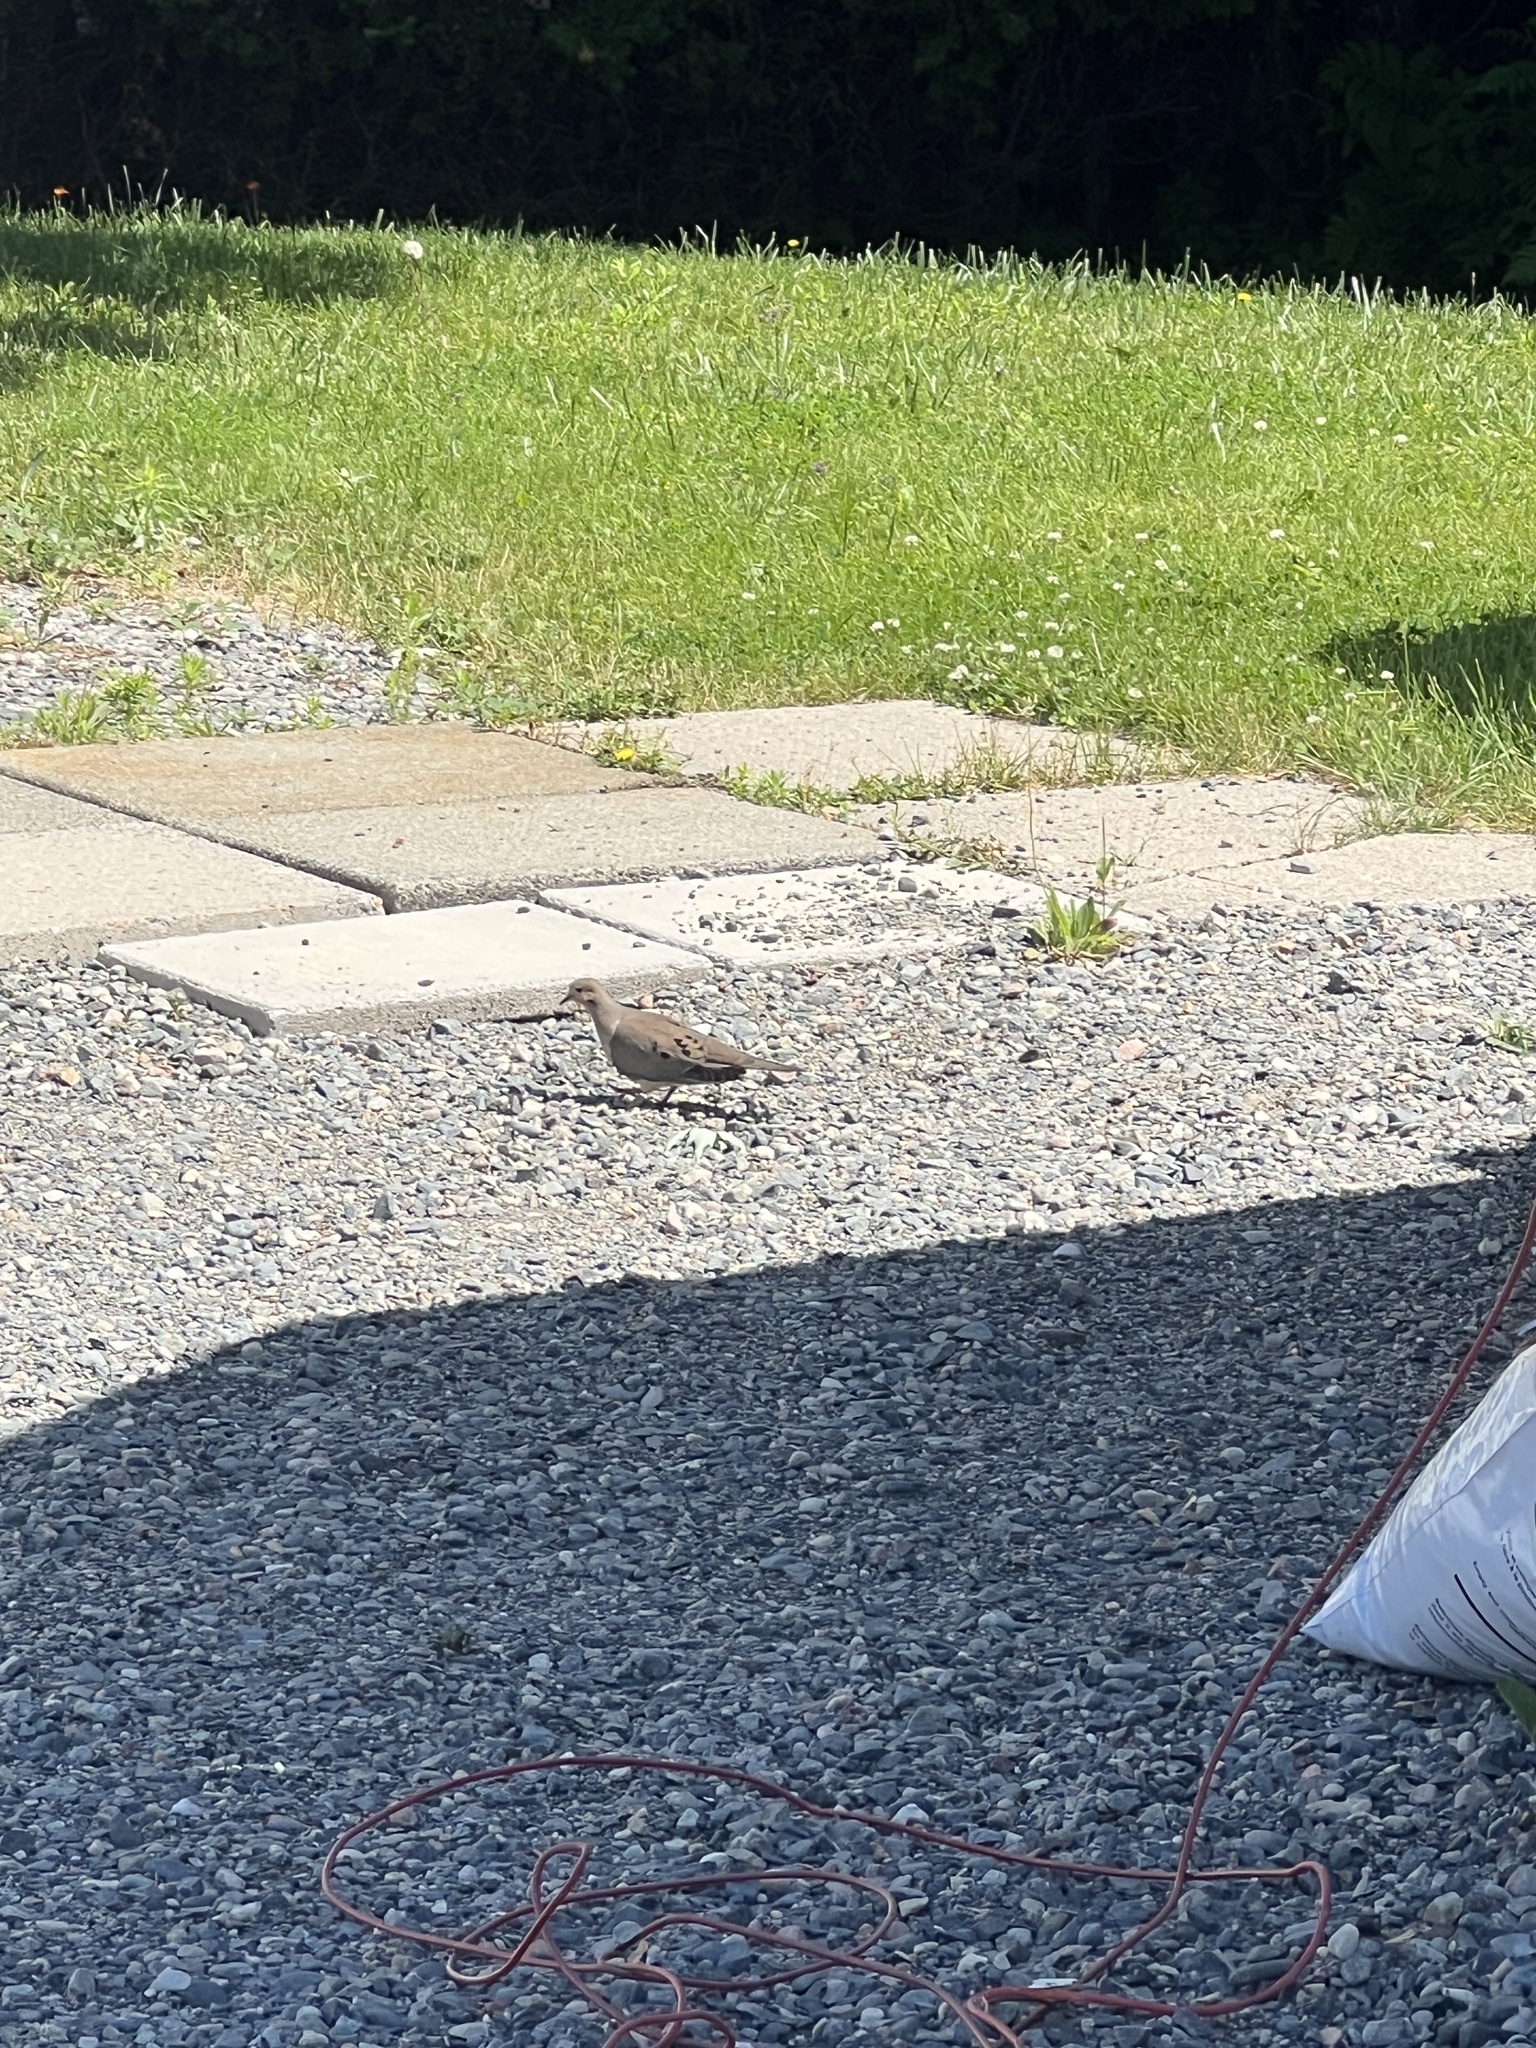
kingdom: Animalia
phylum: Chordata
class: Aves
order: Columbiformes
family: Columbidae
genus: Zenaida
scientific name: Zenaida macroura
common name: Mourning dove
